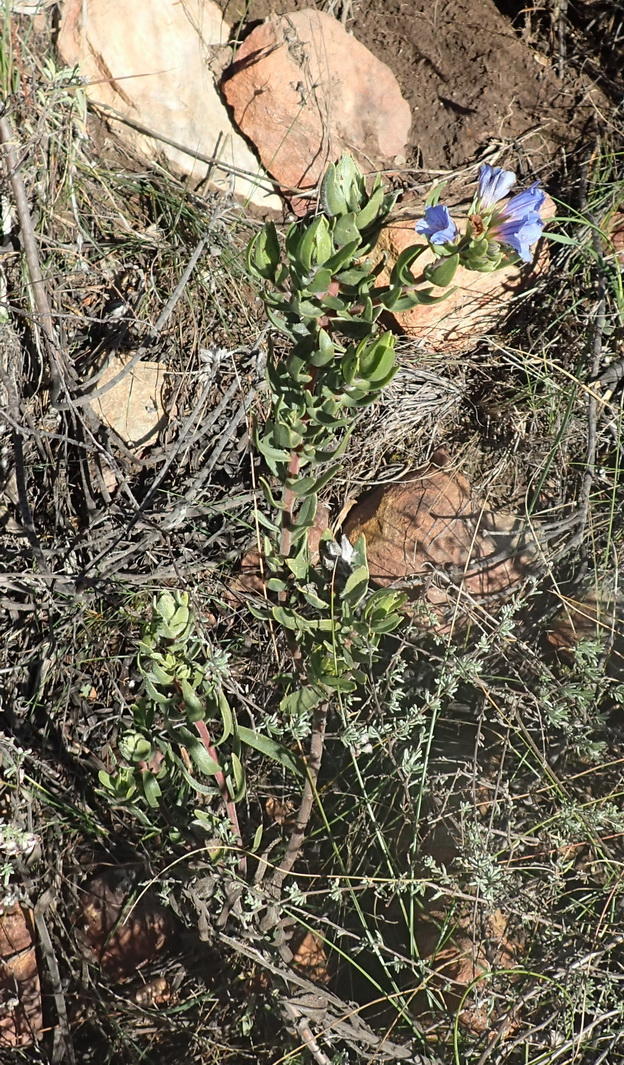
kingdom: Plantae
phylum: Tracheophyta
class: Magnoliopsida
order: Boraginales
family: Boraginaceae
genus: Lobostemon
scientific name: Lobostemon fruticosus
